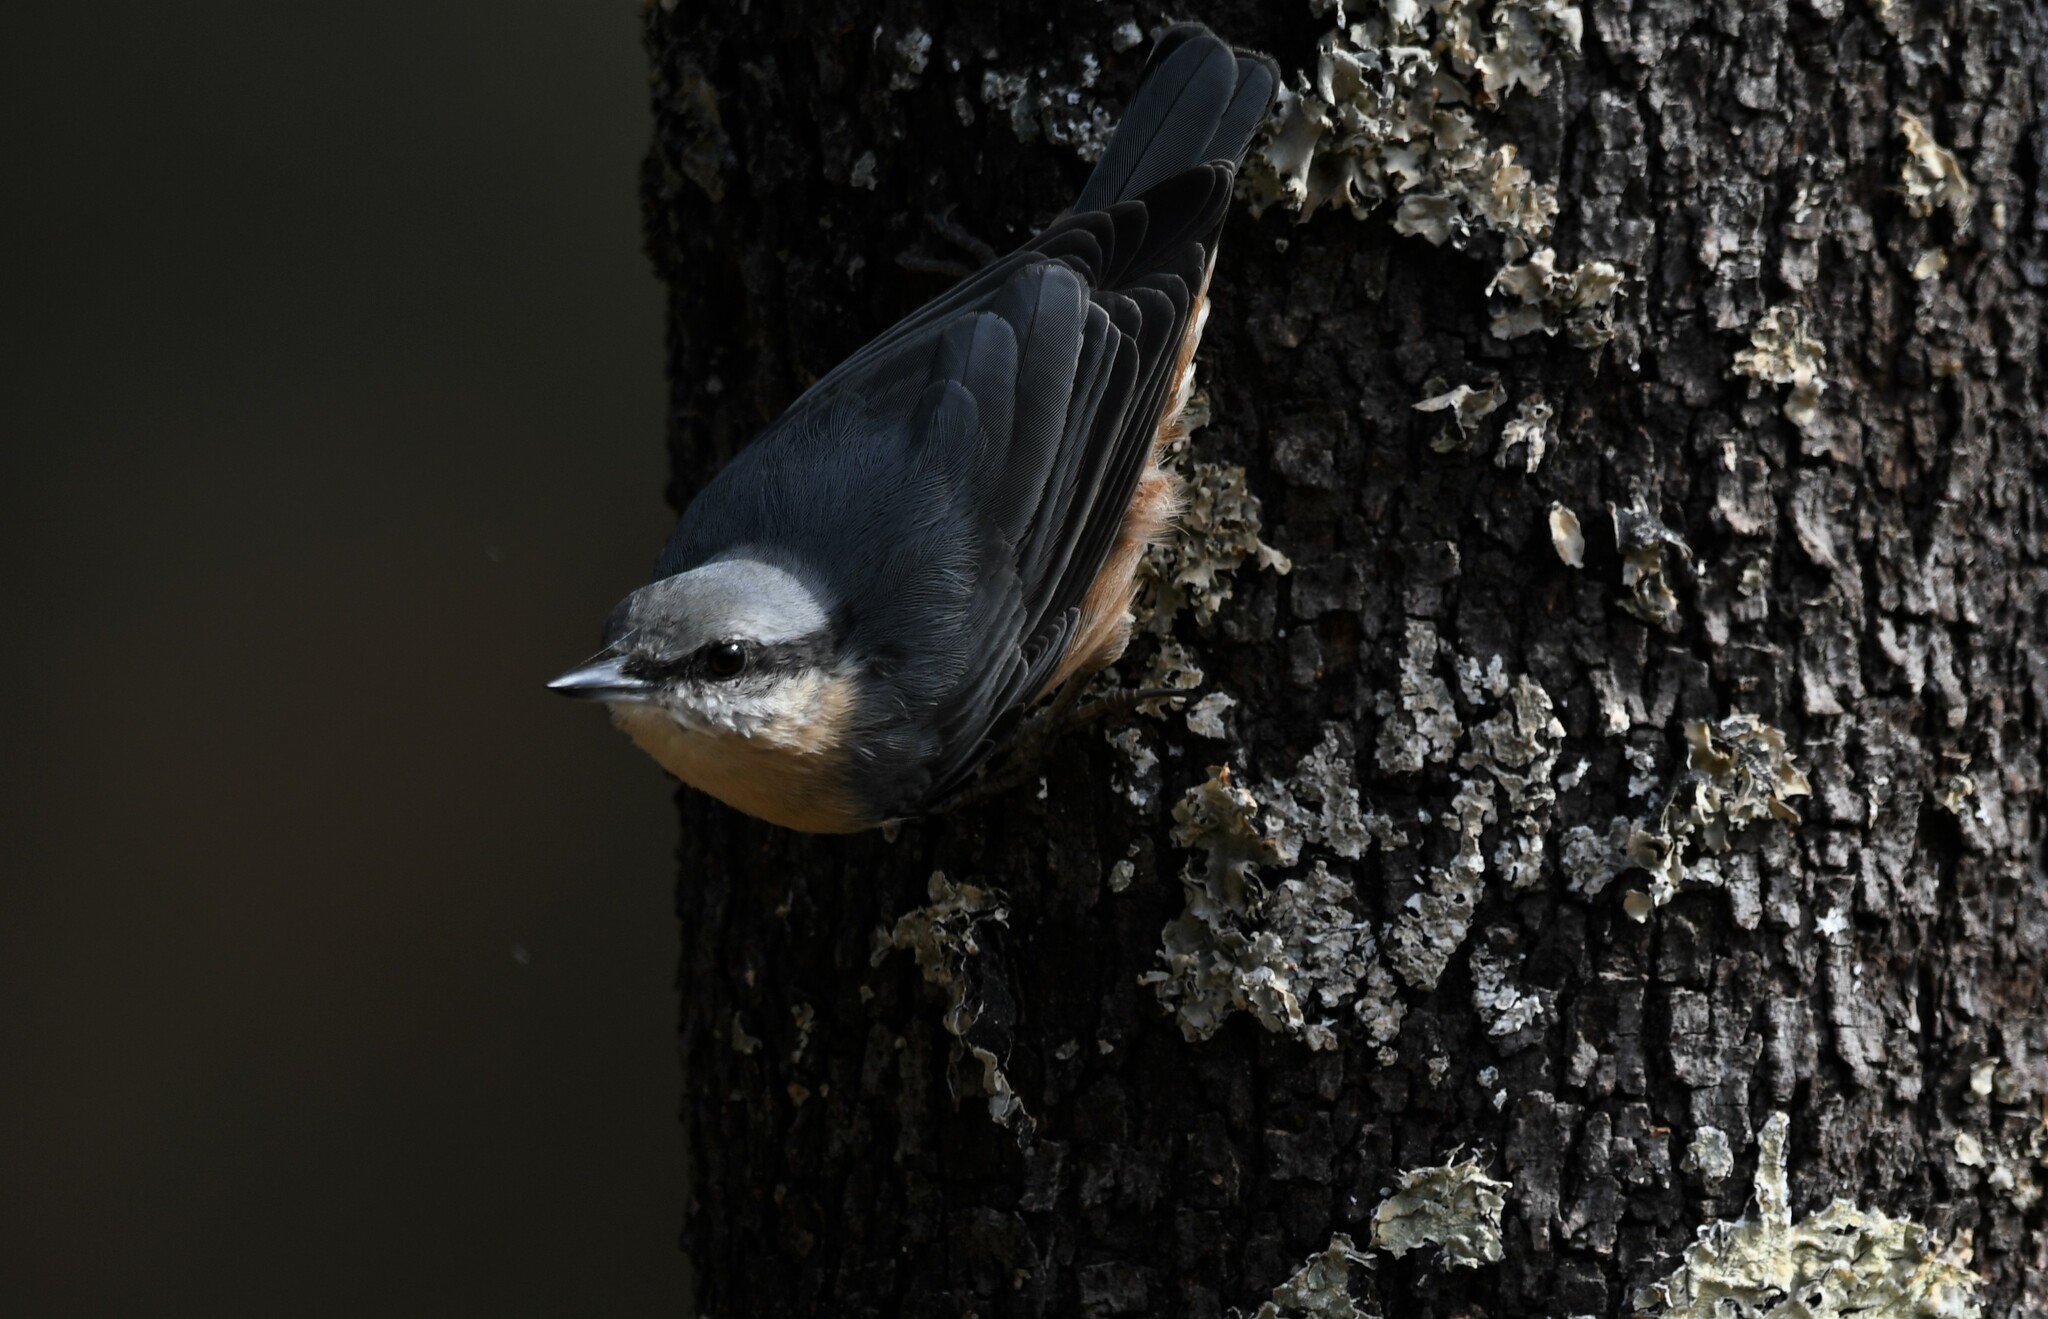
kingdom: Animalia
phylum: Chordata
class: Aves
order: Passeriformes
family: Sittidae
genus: Sitta
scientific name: Sitta europaea
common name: Eurasian nuthatch
